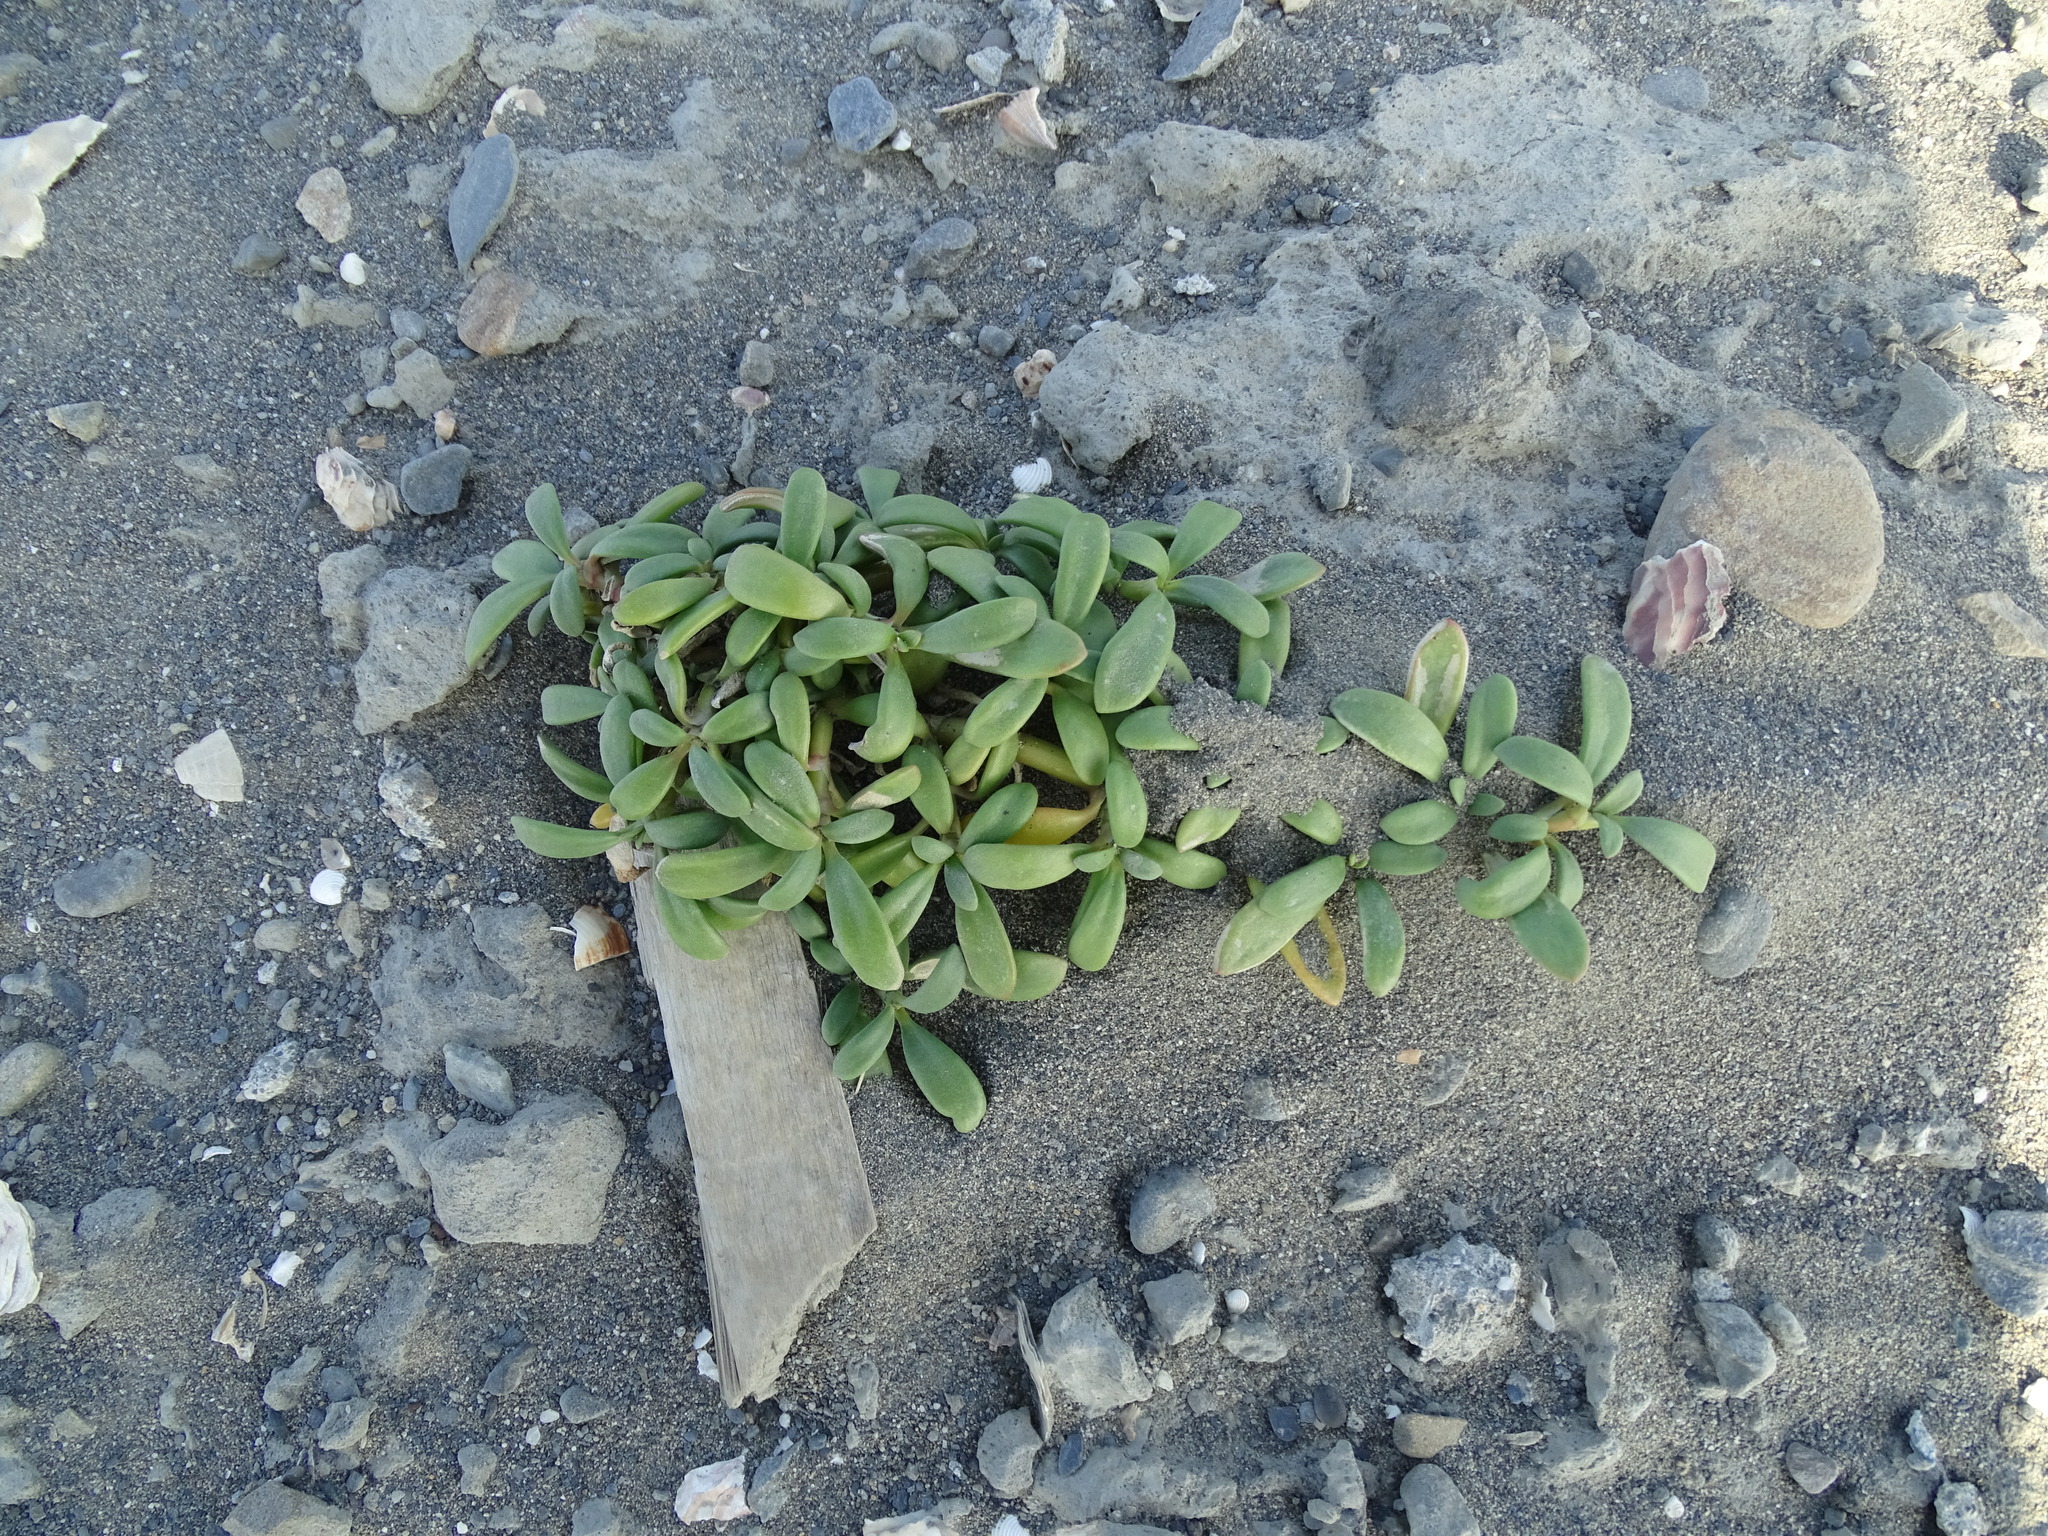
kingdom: Plantae
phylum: Tracheophyta
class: Magnoliopsida
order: Caryophyllales
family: Aizoaceae
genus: Sesuvium
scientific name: Sesuvium portulacastrum
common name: Sea-purslane
